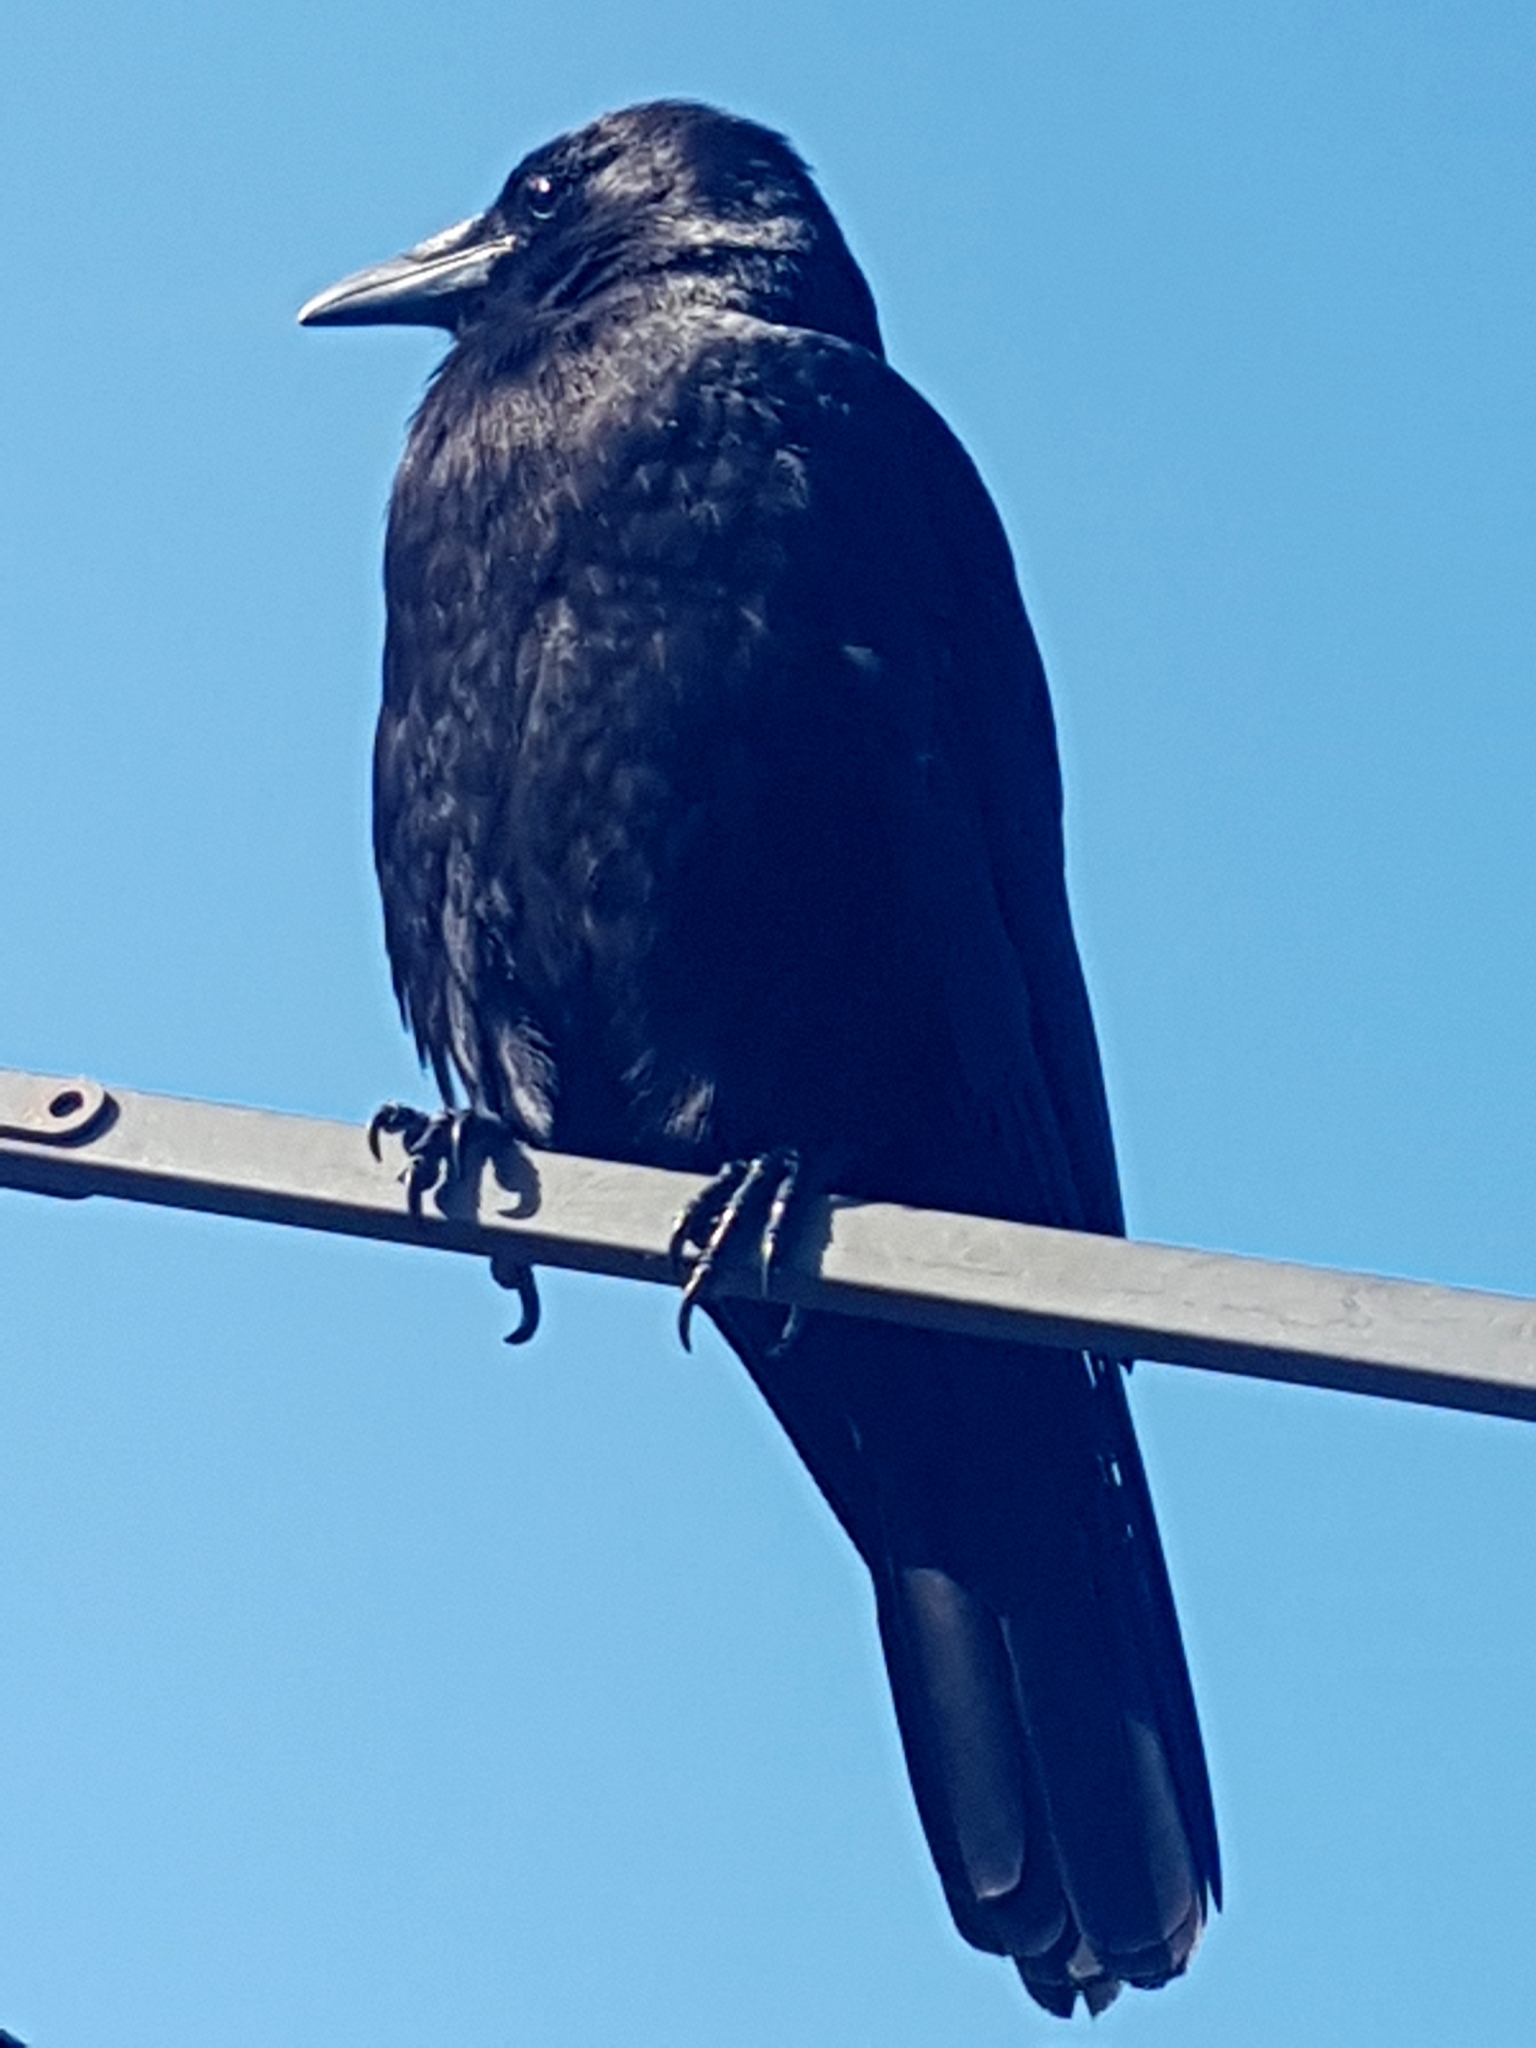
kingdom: Animalia
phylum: Chordata
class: Aves
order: Passeriformes
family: Corvidae
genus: Corvus
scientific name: Corvus brachyrhynchos
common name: American crow
